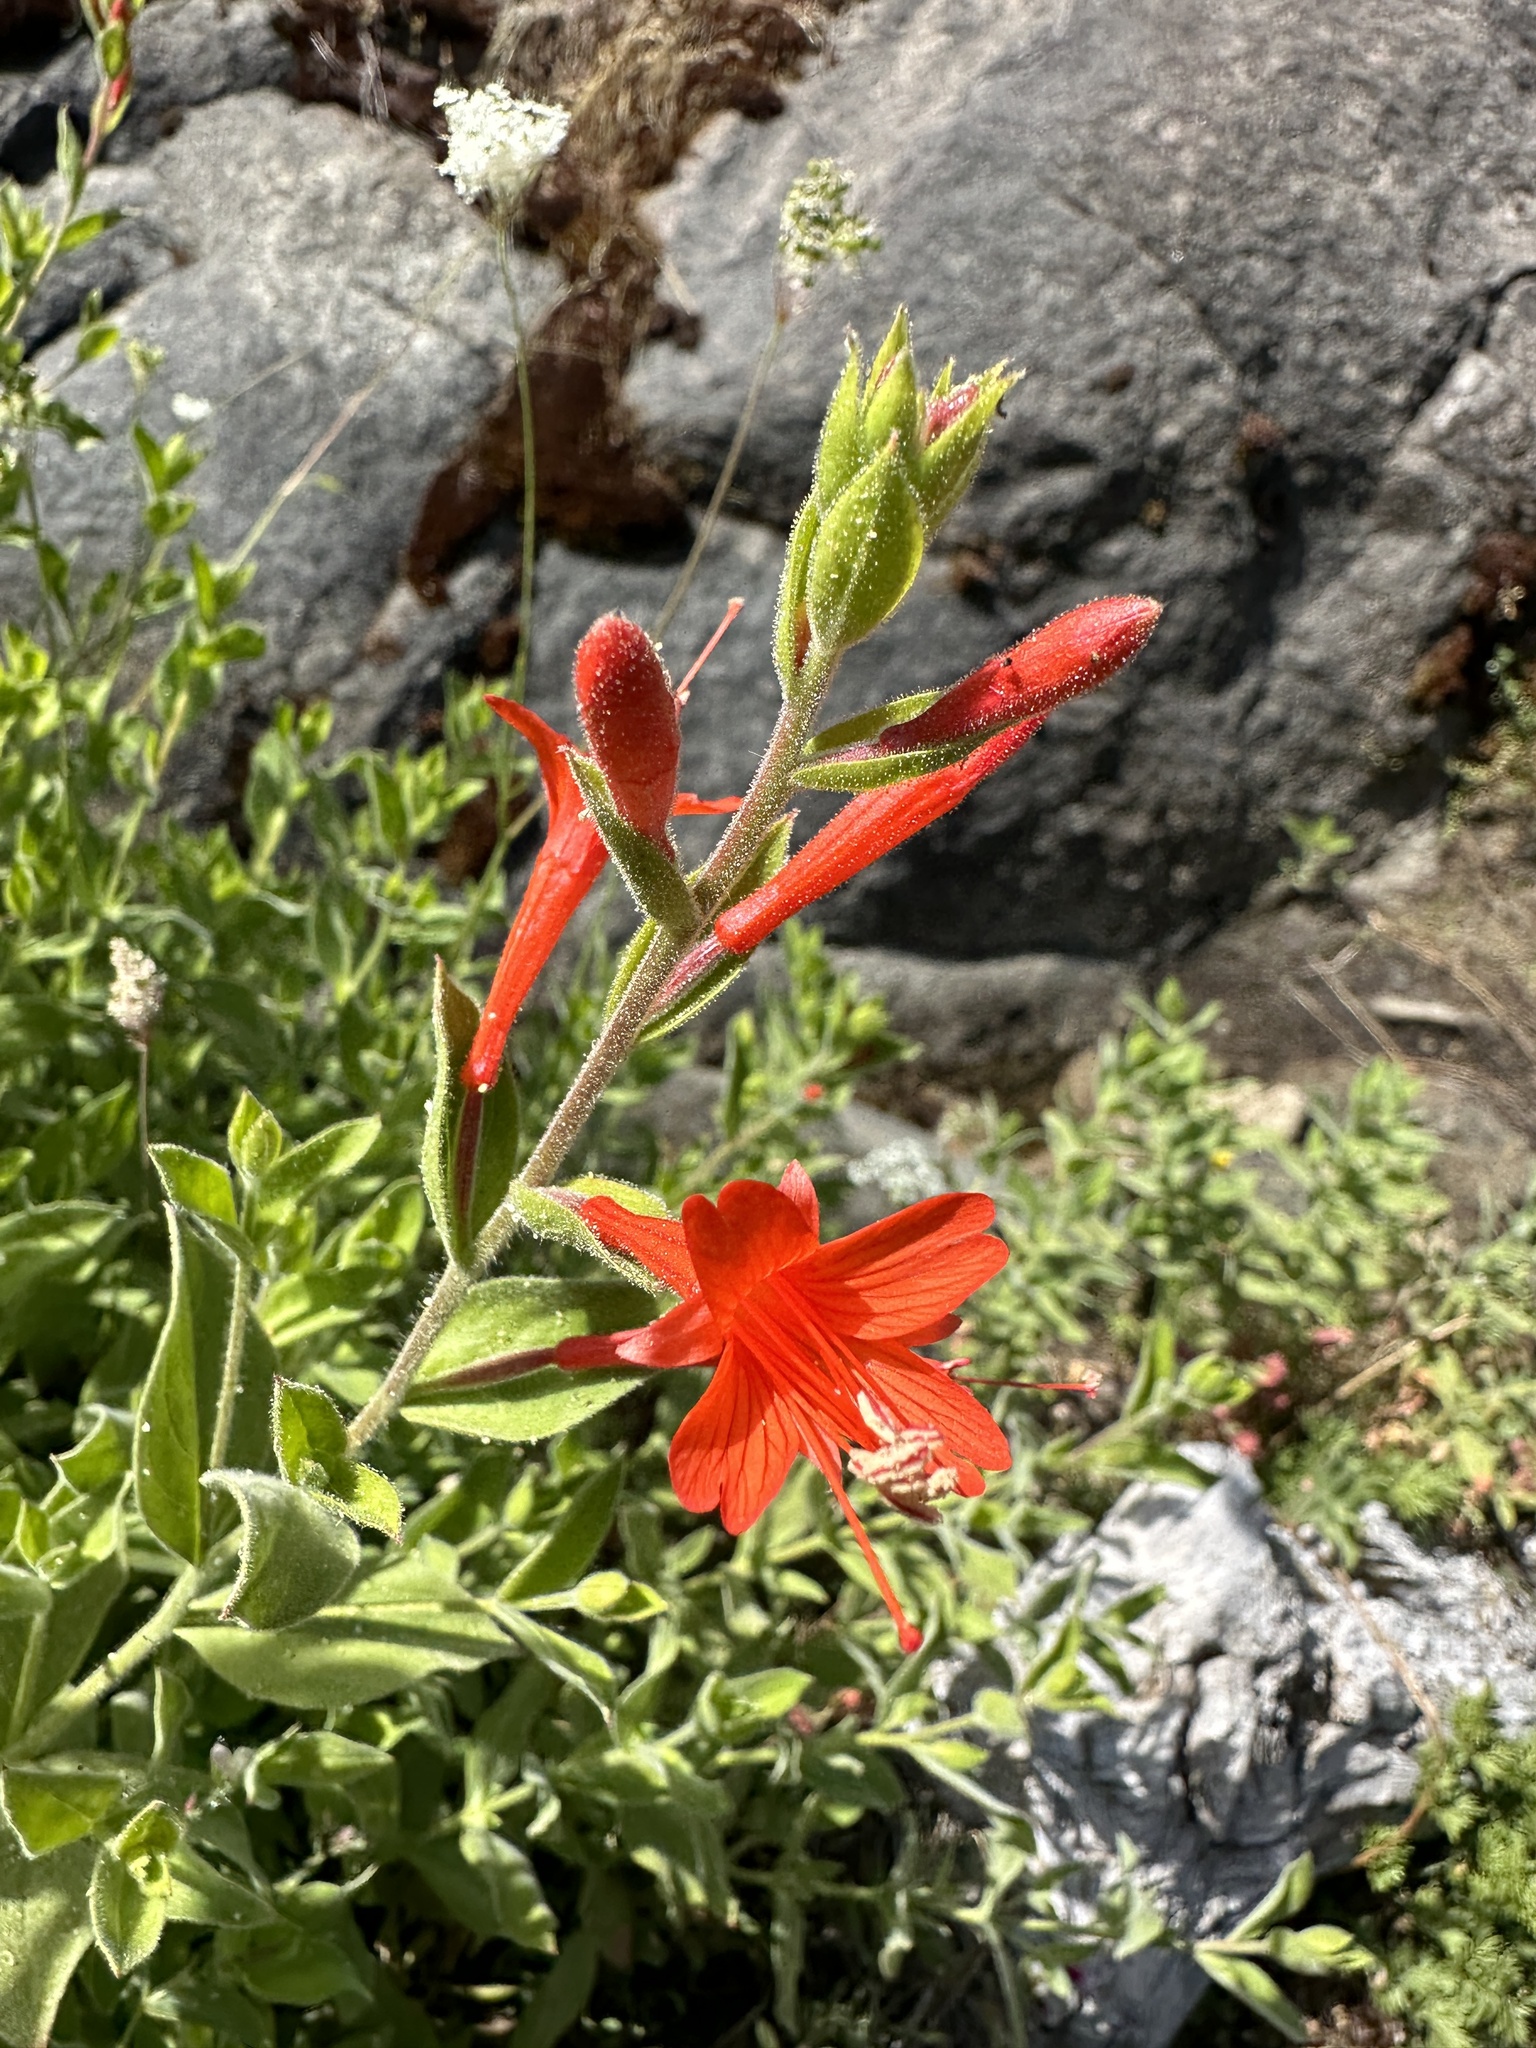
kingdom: Plantae
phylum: Tracheophyta
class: Magnoliopsida
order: Myrtales
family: Onagraceae
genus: Epilobium
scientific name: Epilobium canum
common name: California-fuchsia
